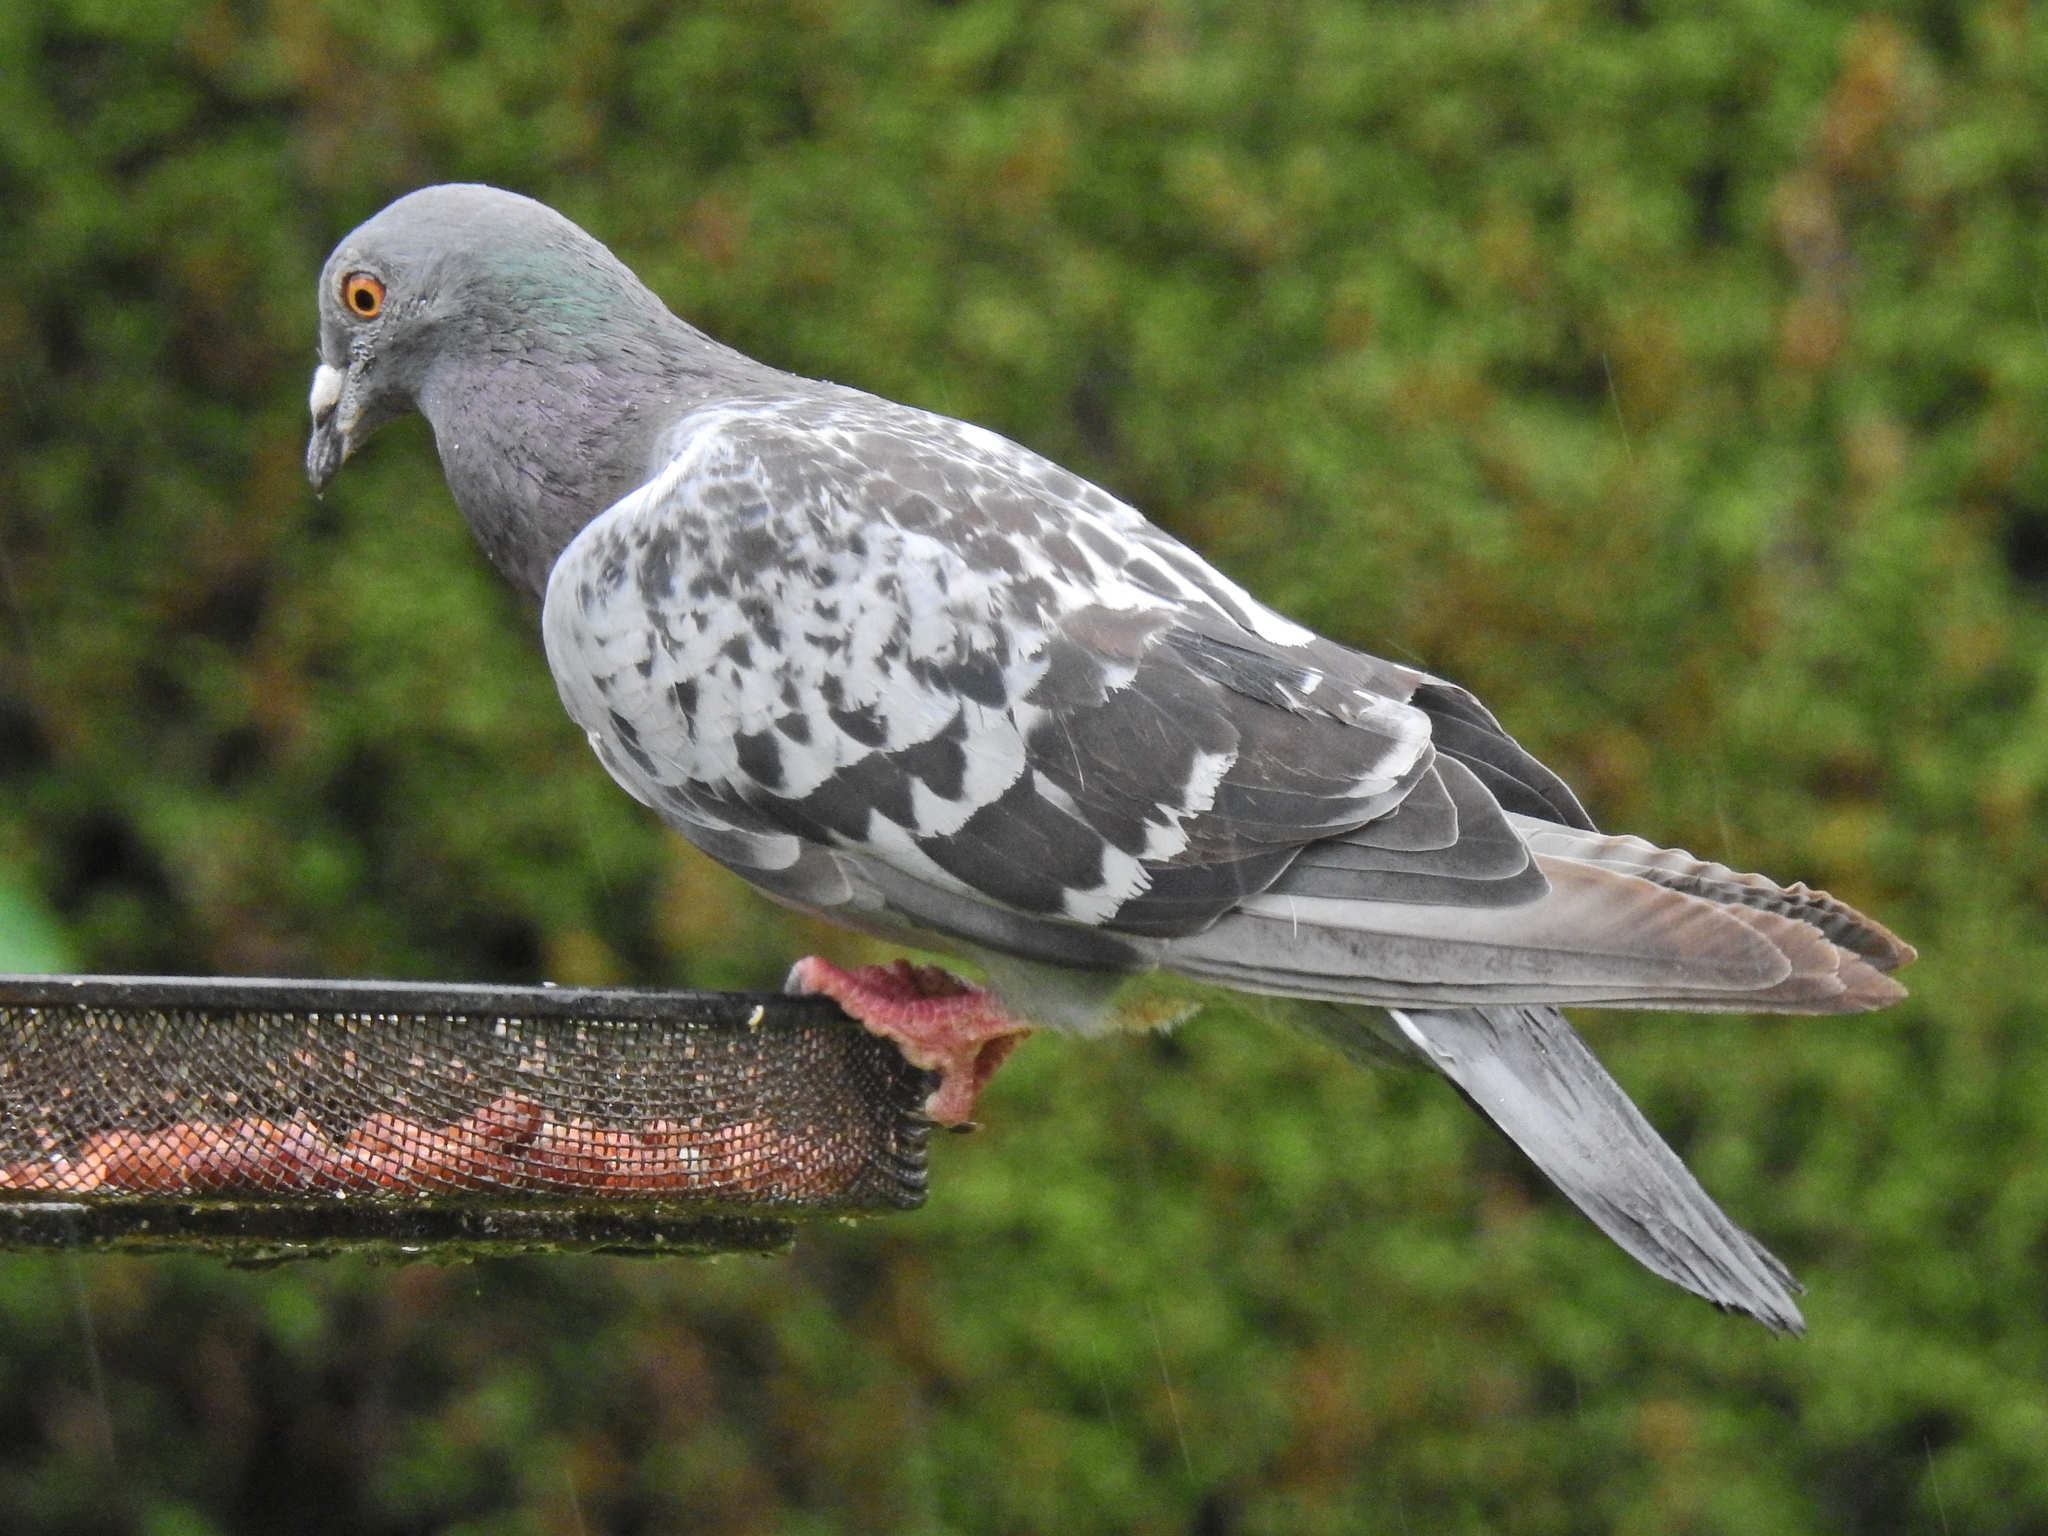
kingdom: Animalia
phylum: Chordata
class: Aves
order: Columbiformes
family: Columbidae
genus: Columba
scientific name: Columba livia
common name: Rock pigeon
